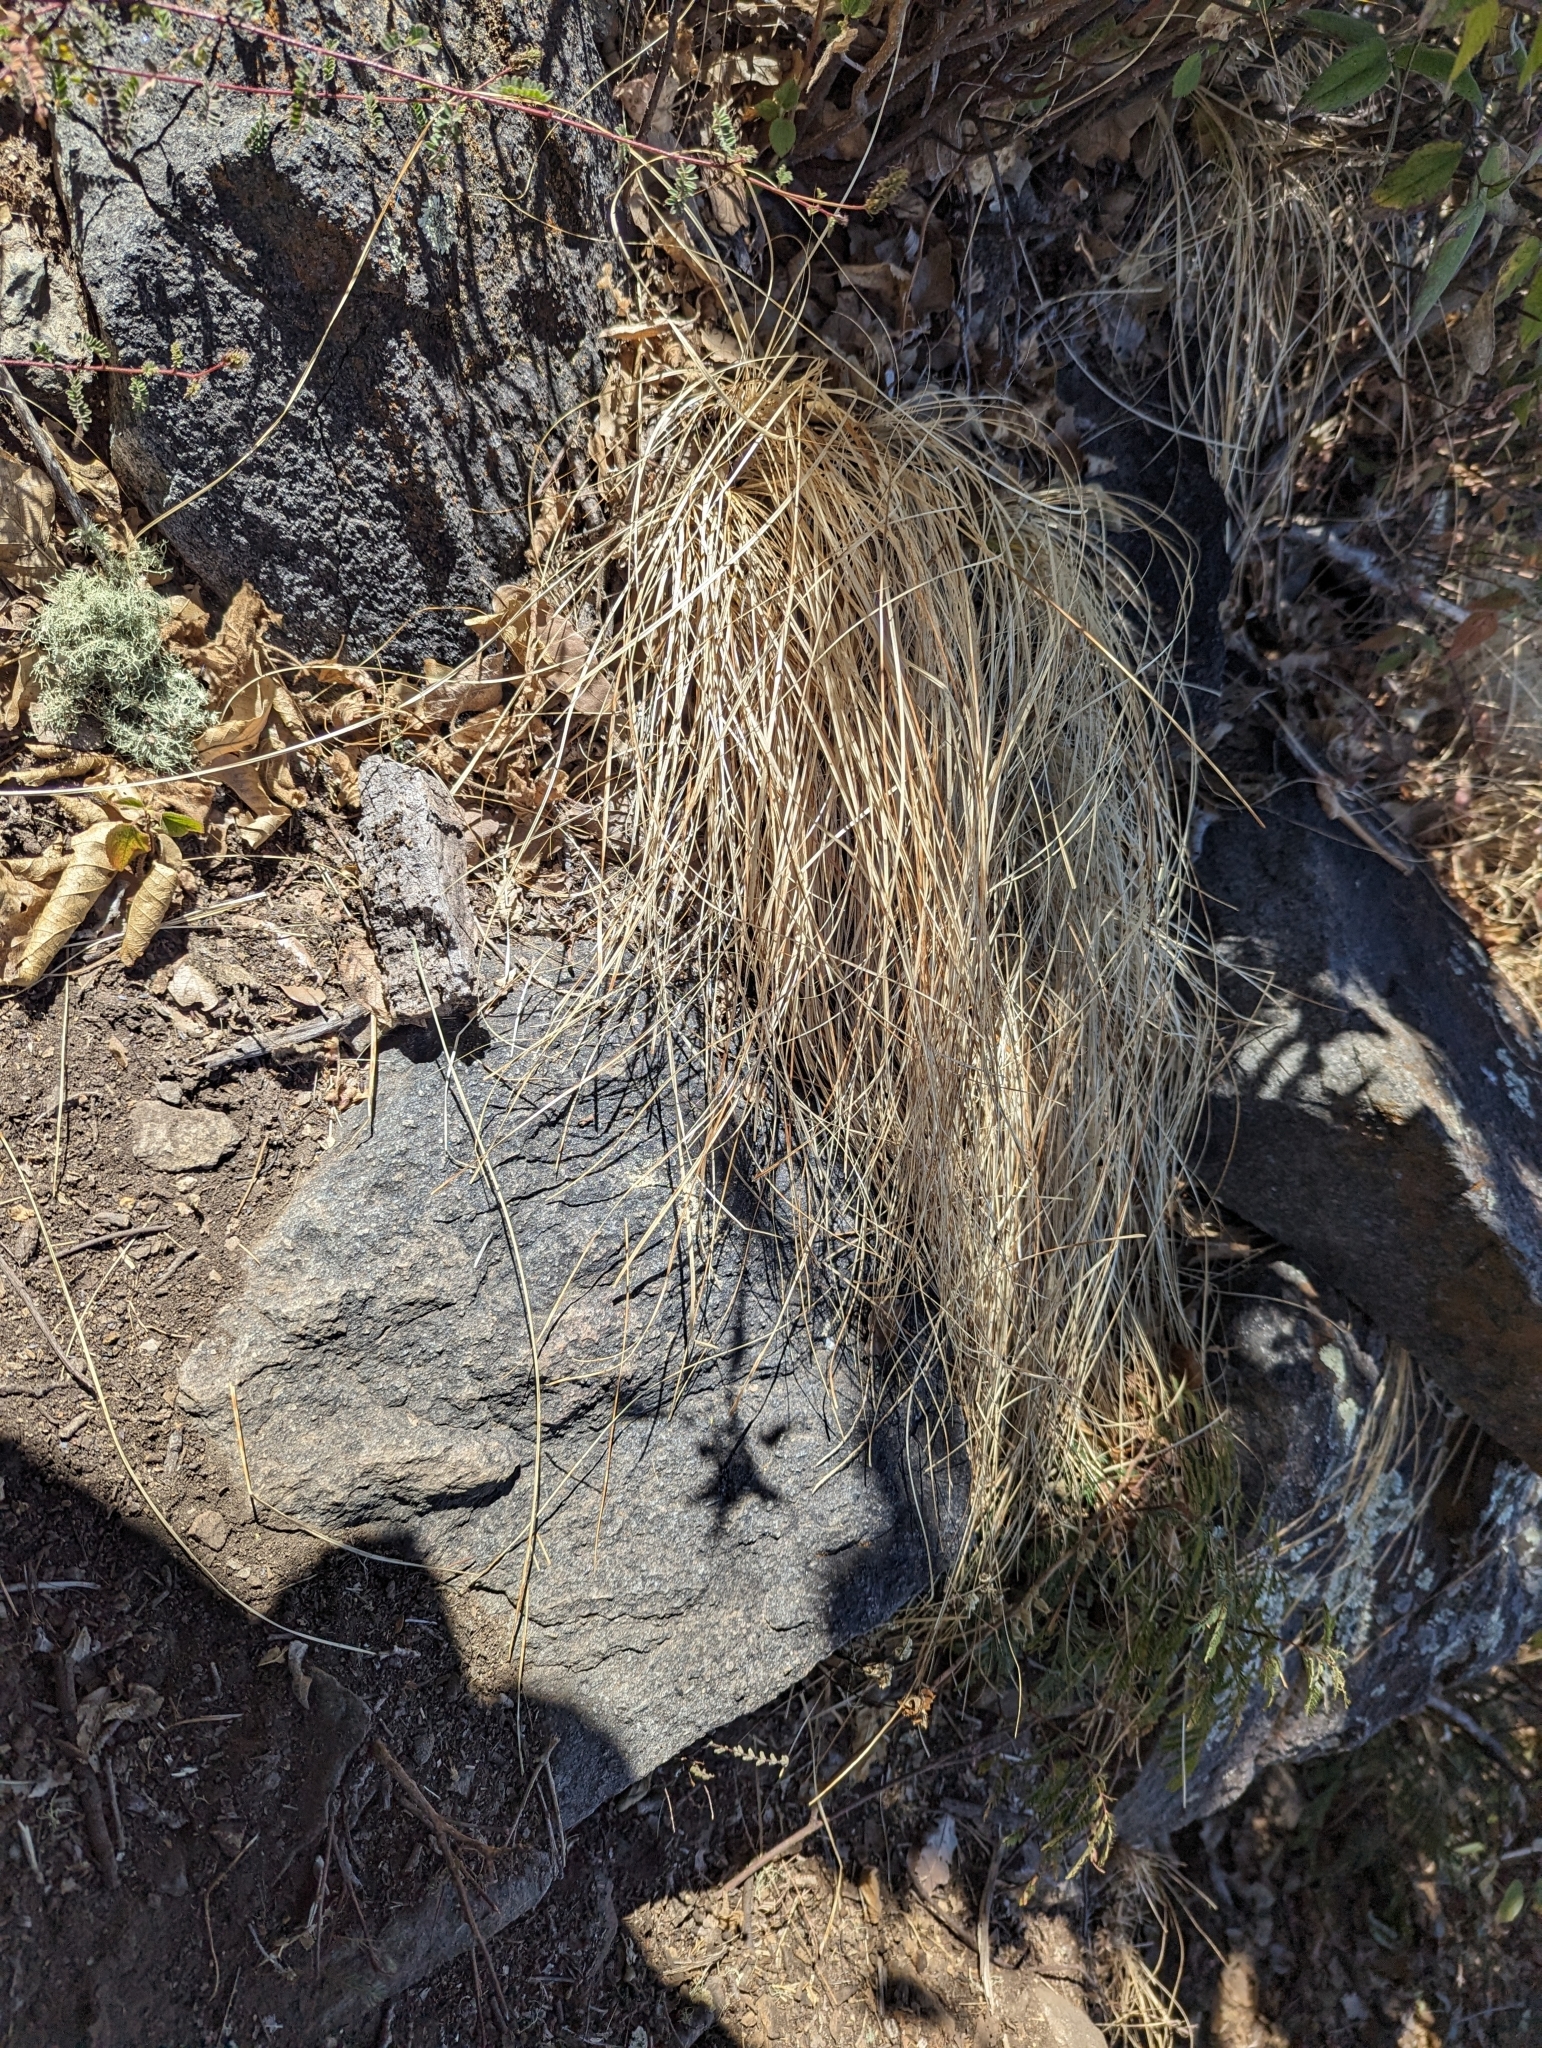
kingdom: Plantae
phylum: Tracheophyta
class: Liliopsida
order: Poales
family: Cyperaceae
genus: Carex
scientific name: Carex longissima
